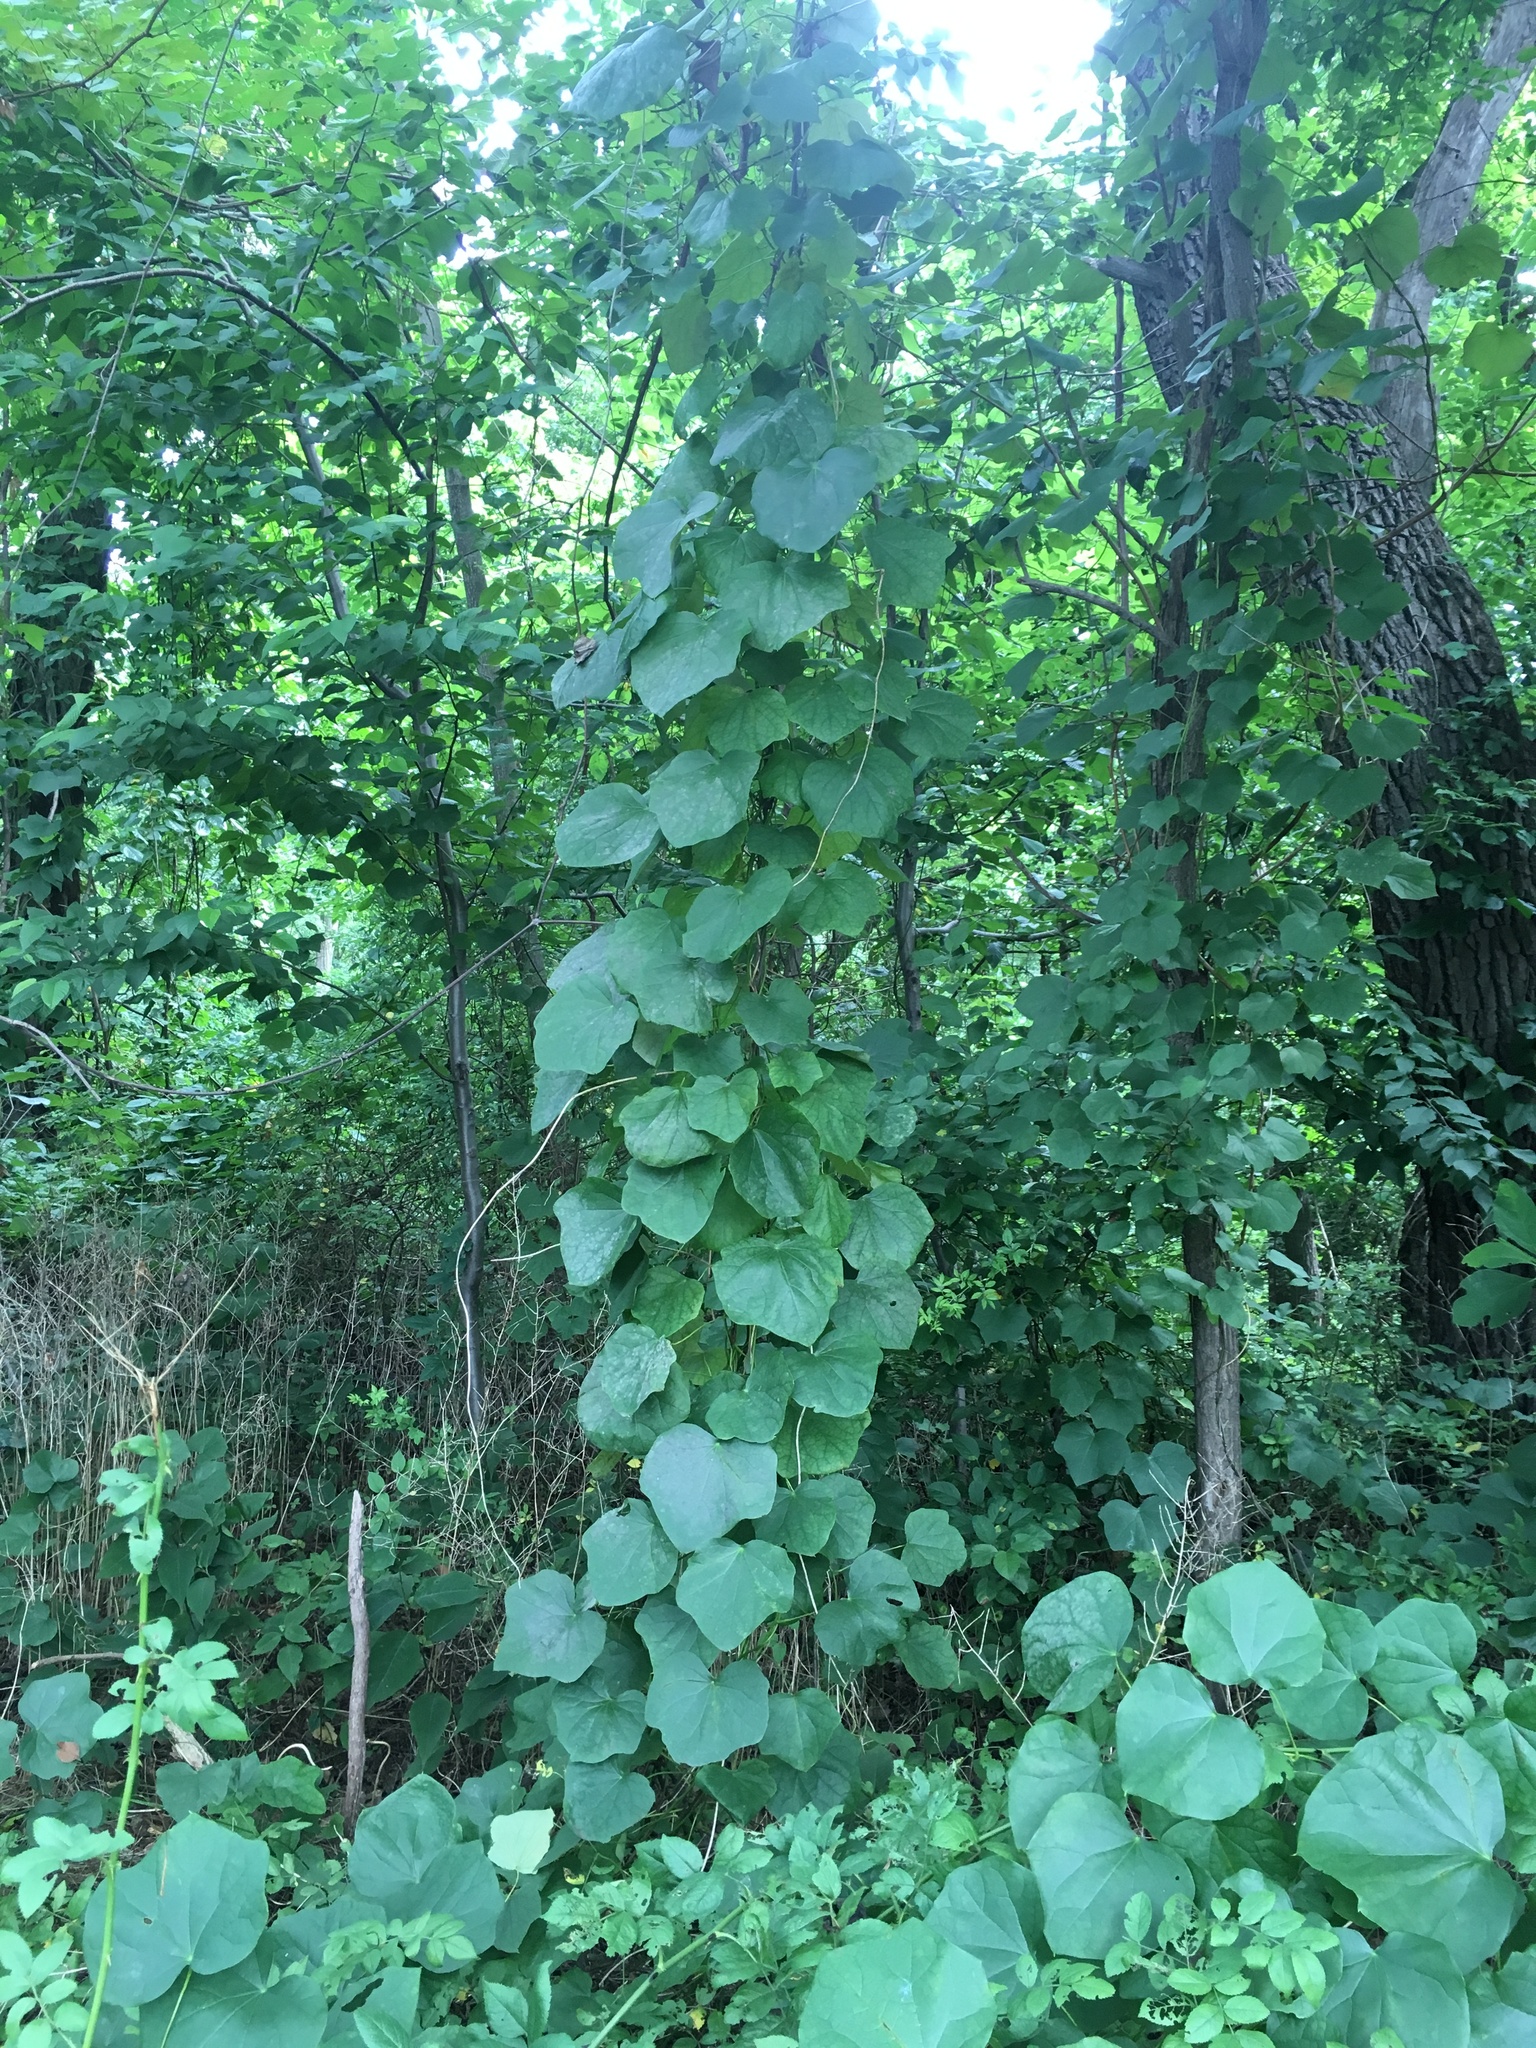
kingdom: Plantae
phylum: Tracheophyta
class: Magnoliopsida
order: Ranunculales
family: Menispermaceae
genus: Menispermum
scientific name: Menispermum canadense
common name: Moonseed
